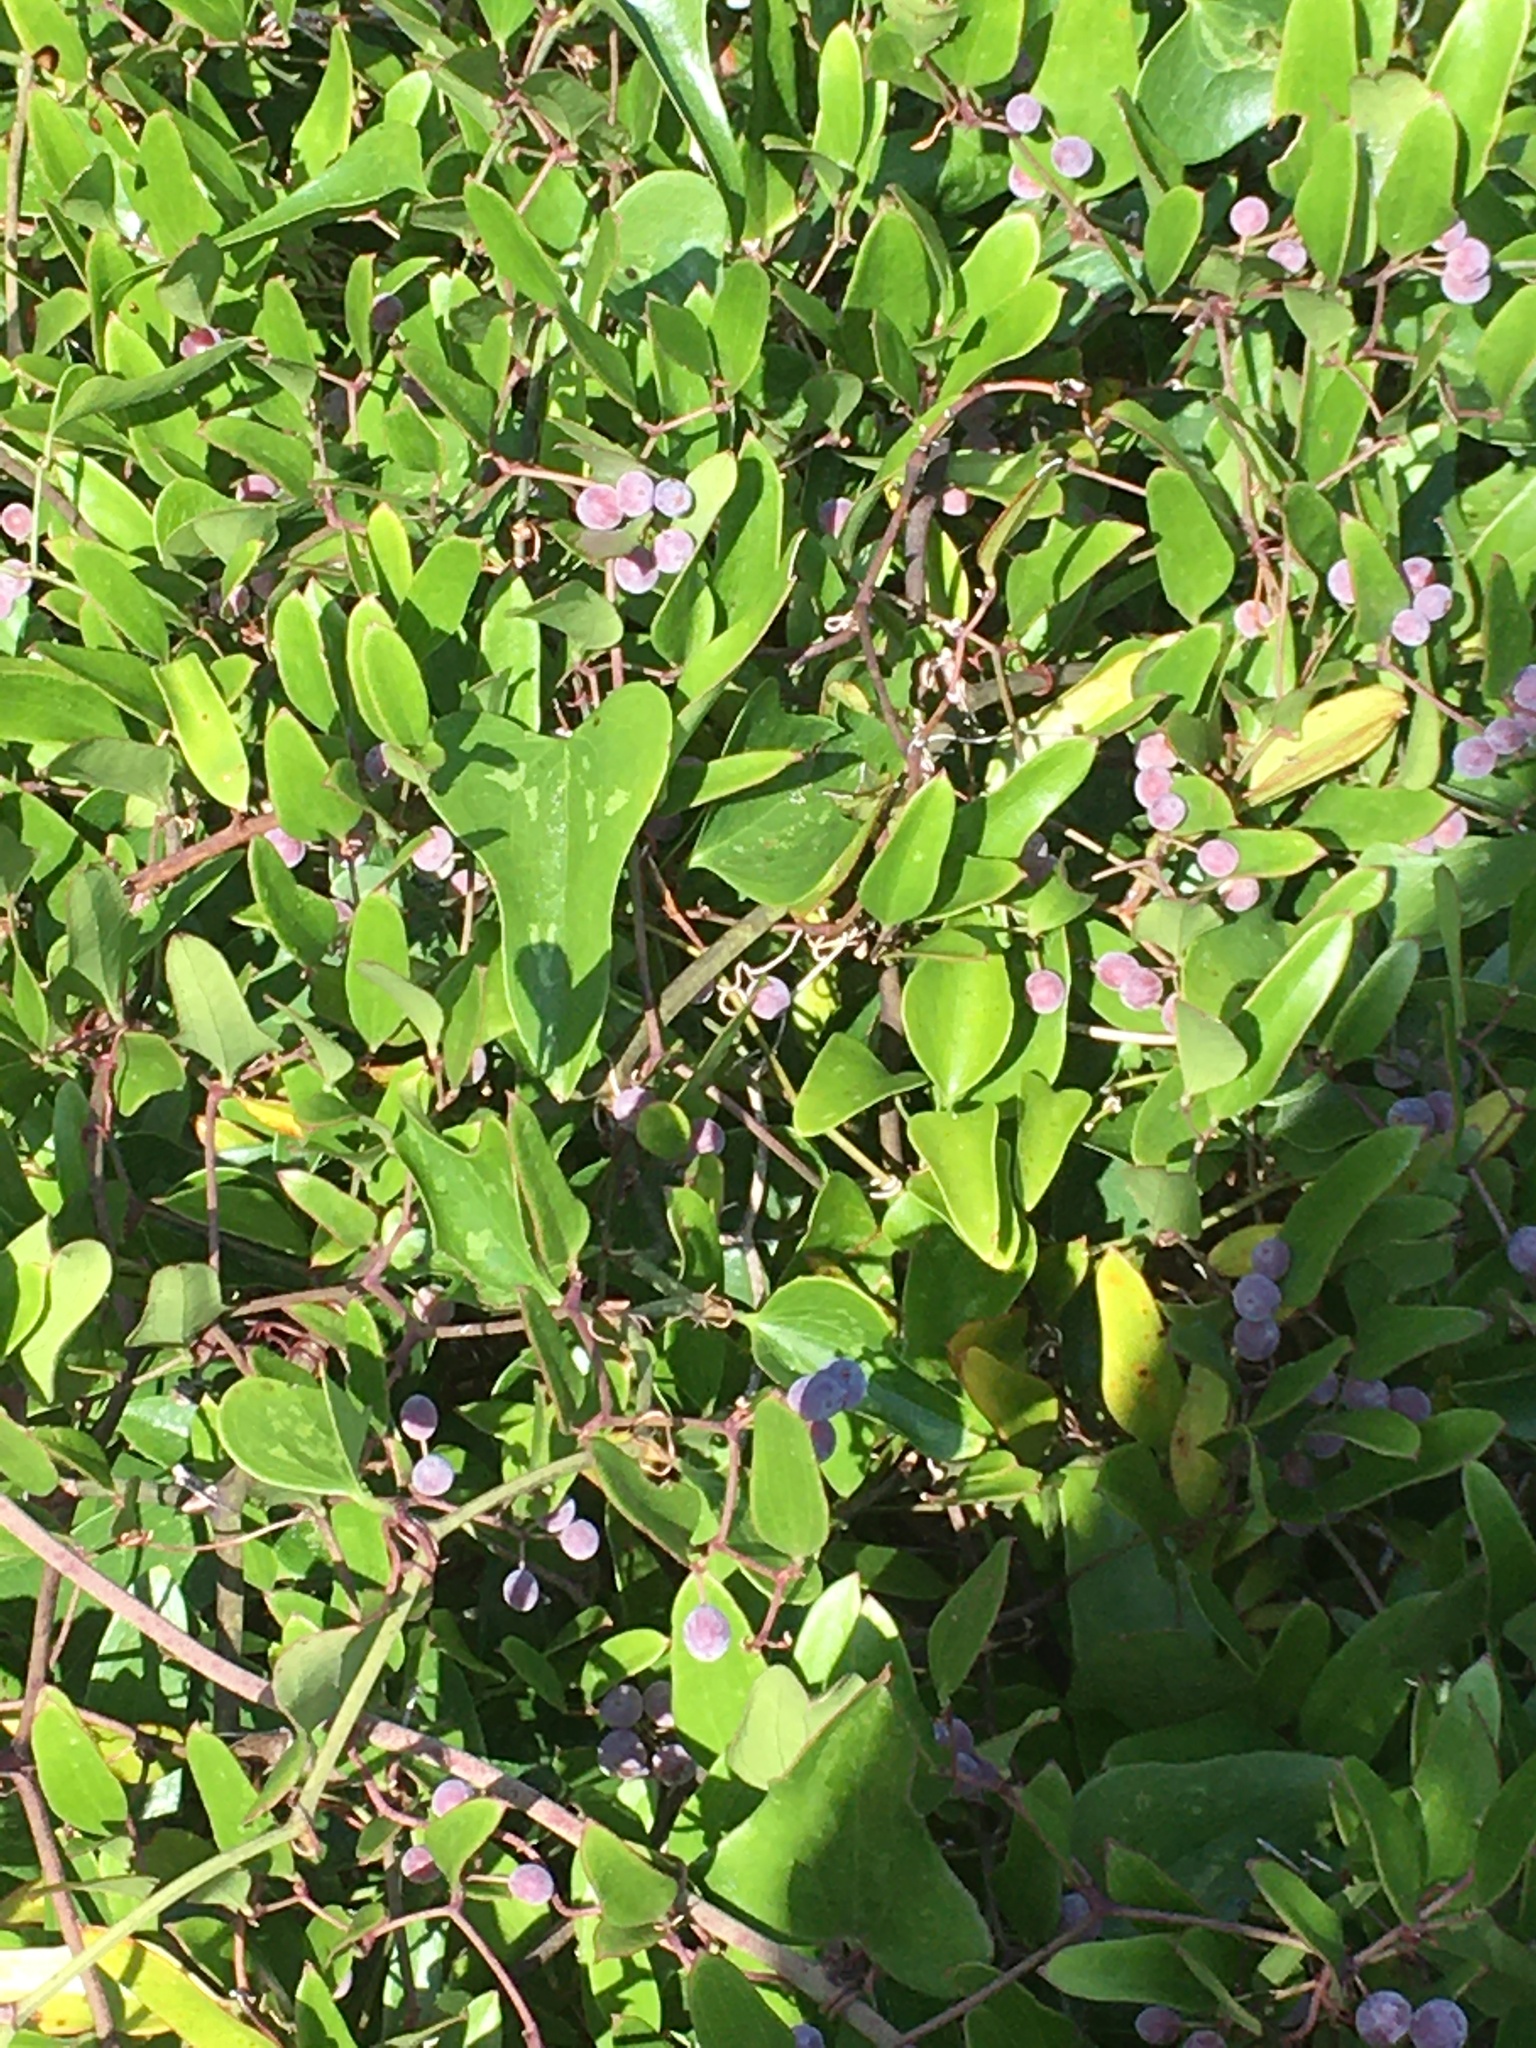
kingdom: Plantae
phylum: Tracheophyta
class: Liliopsida
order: Liliales
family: Smilacaceae
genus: Smilax
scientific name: Smilax auriculata
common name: Wild bamboo
